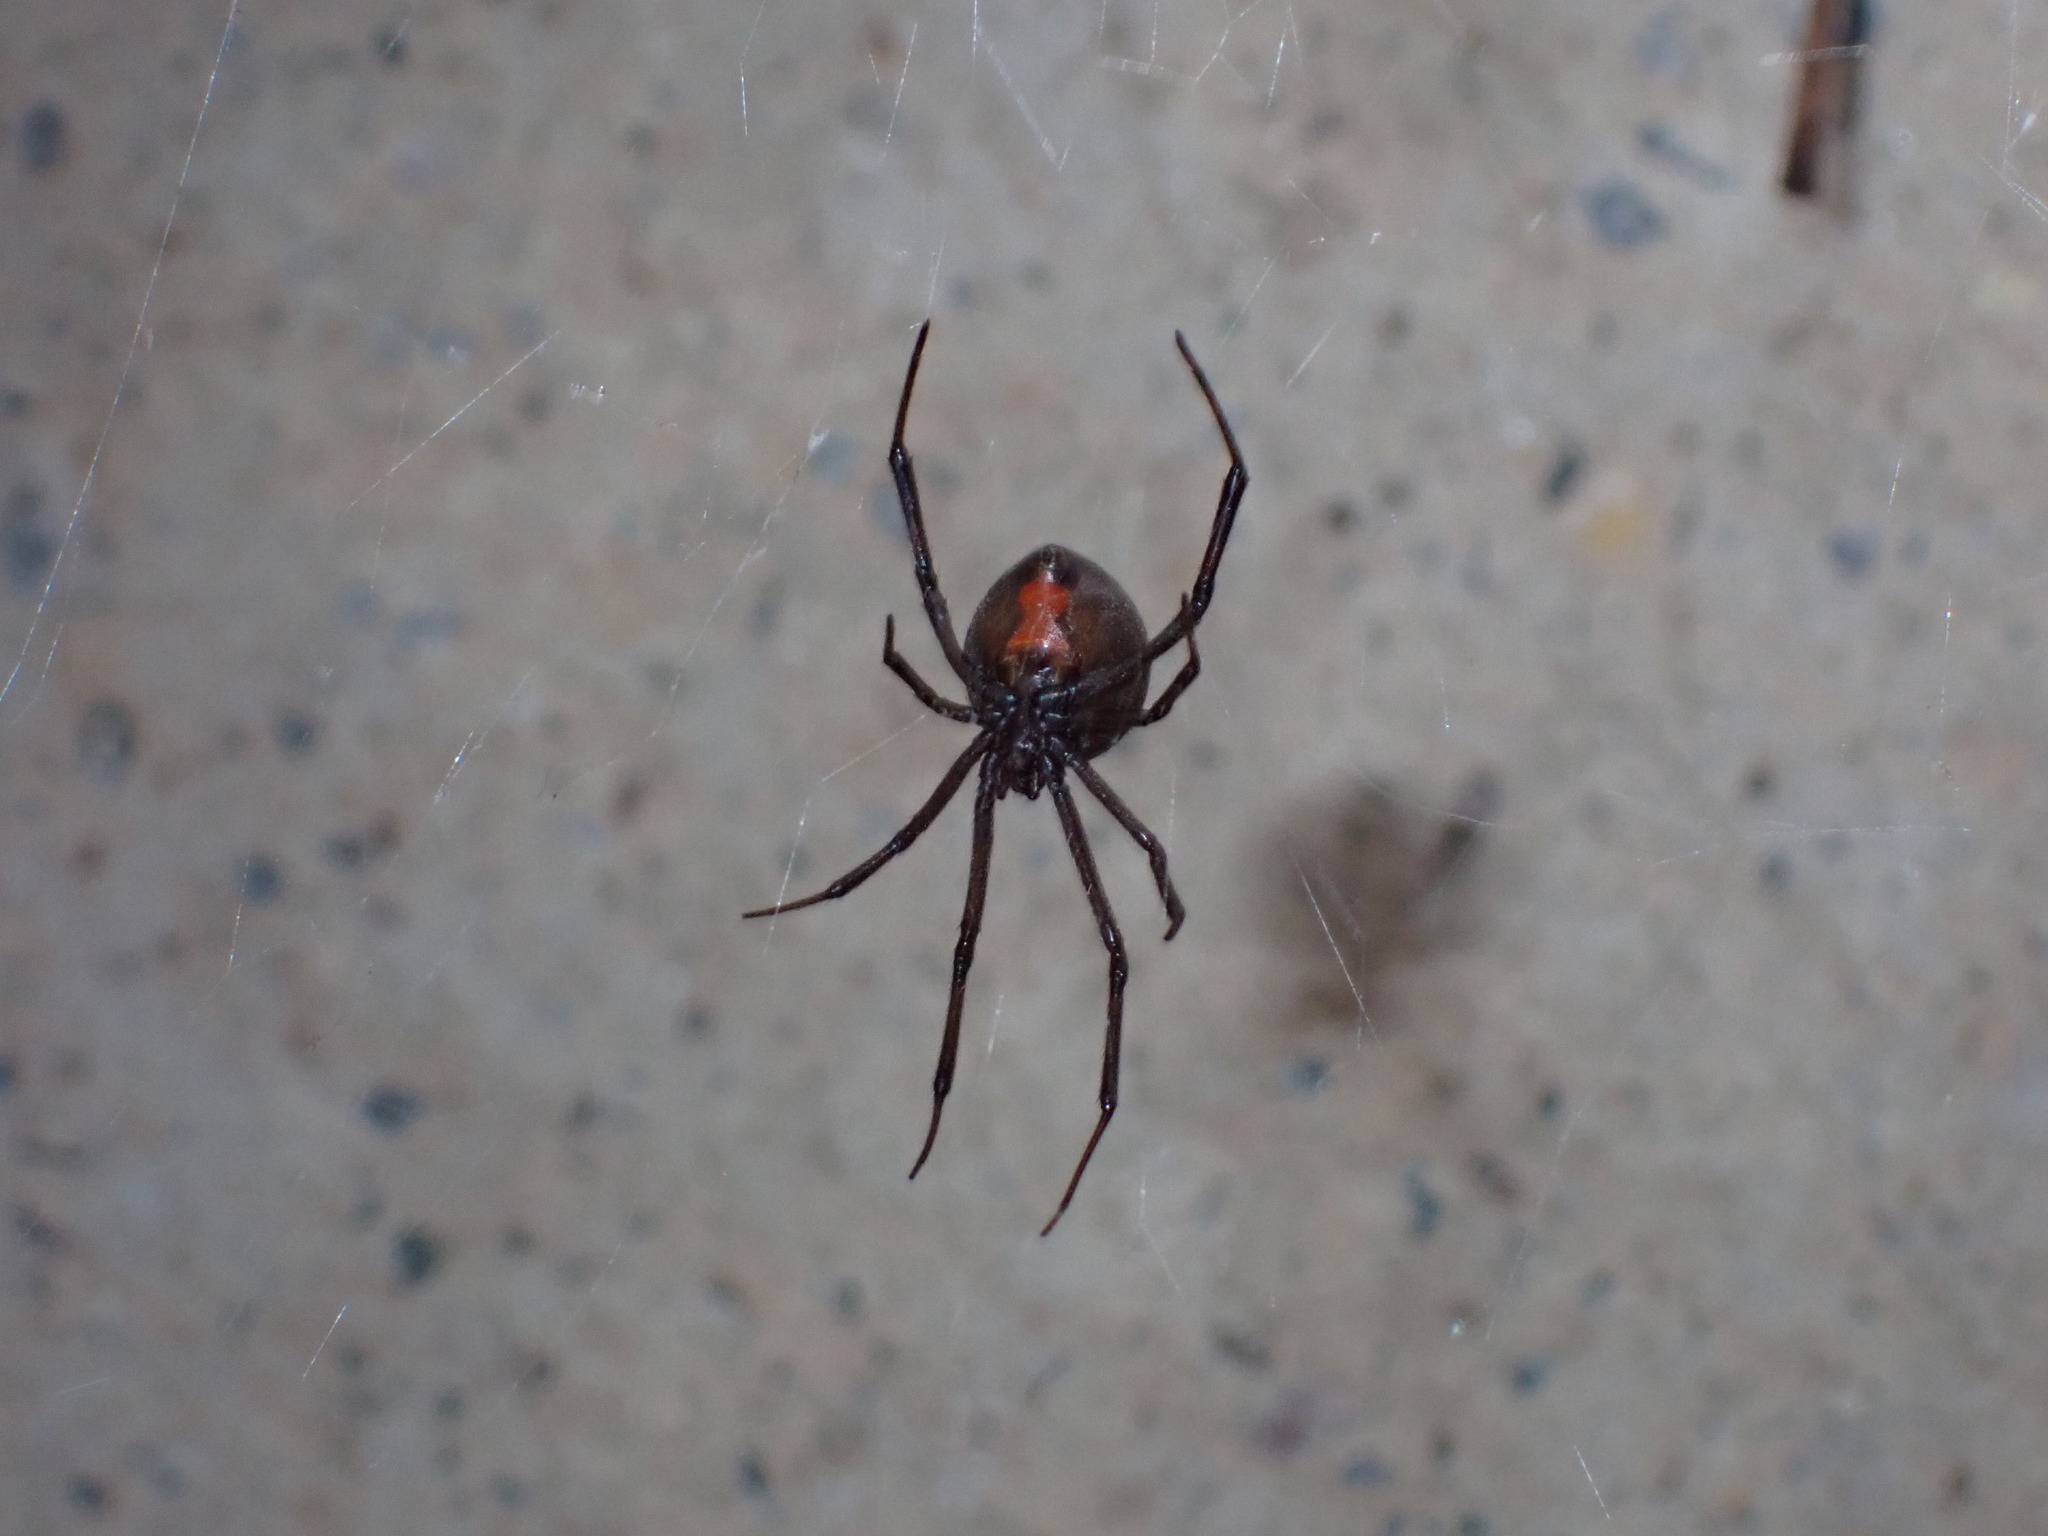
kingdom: Animalia
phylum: Arthropoda
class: Arachnida
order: Araneae
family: Theridiidae
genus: Latrodectus
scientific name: Latrodectus hasselti
